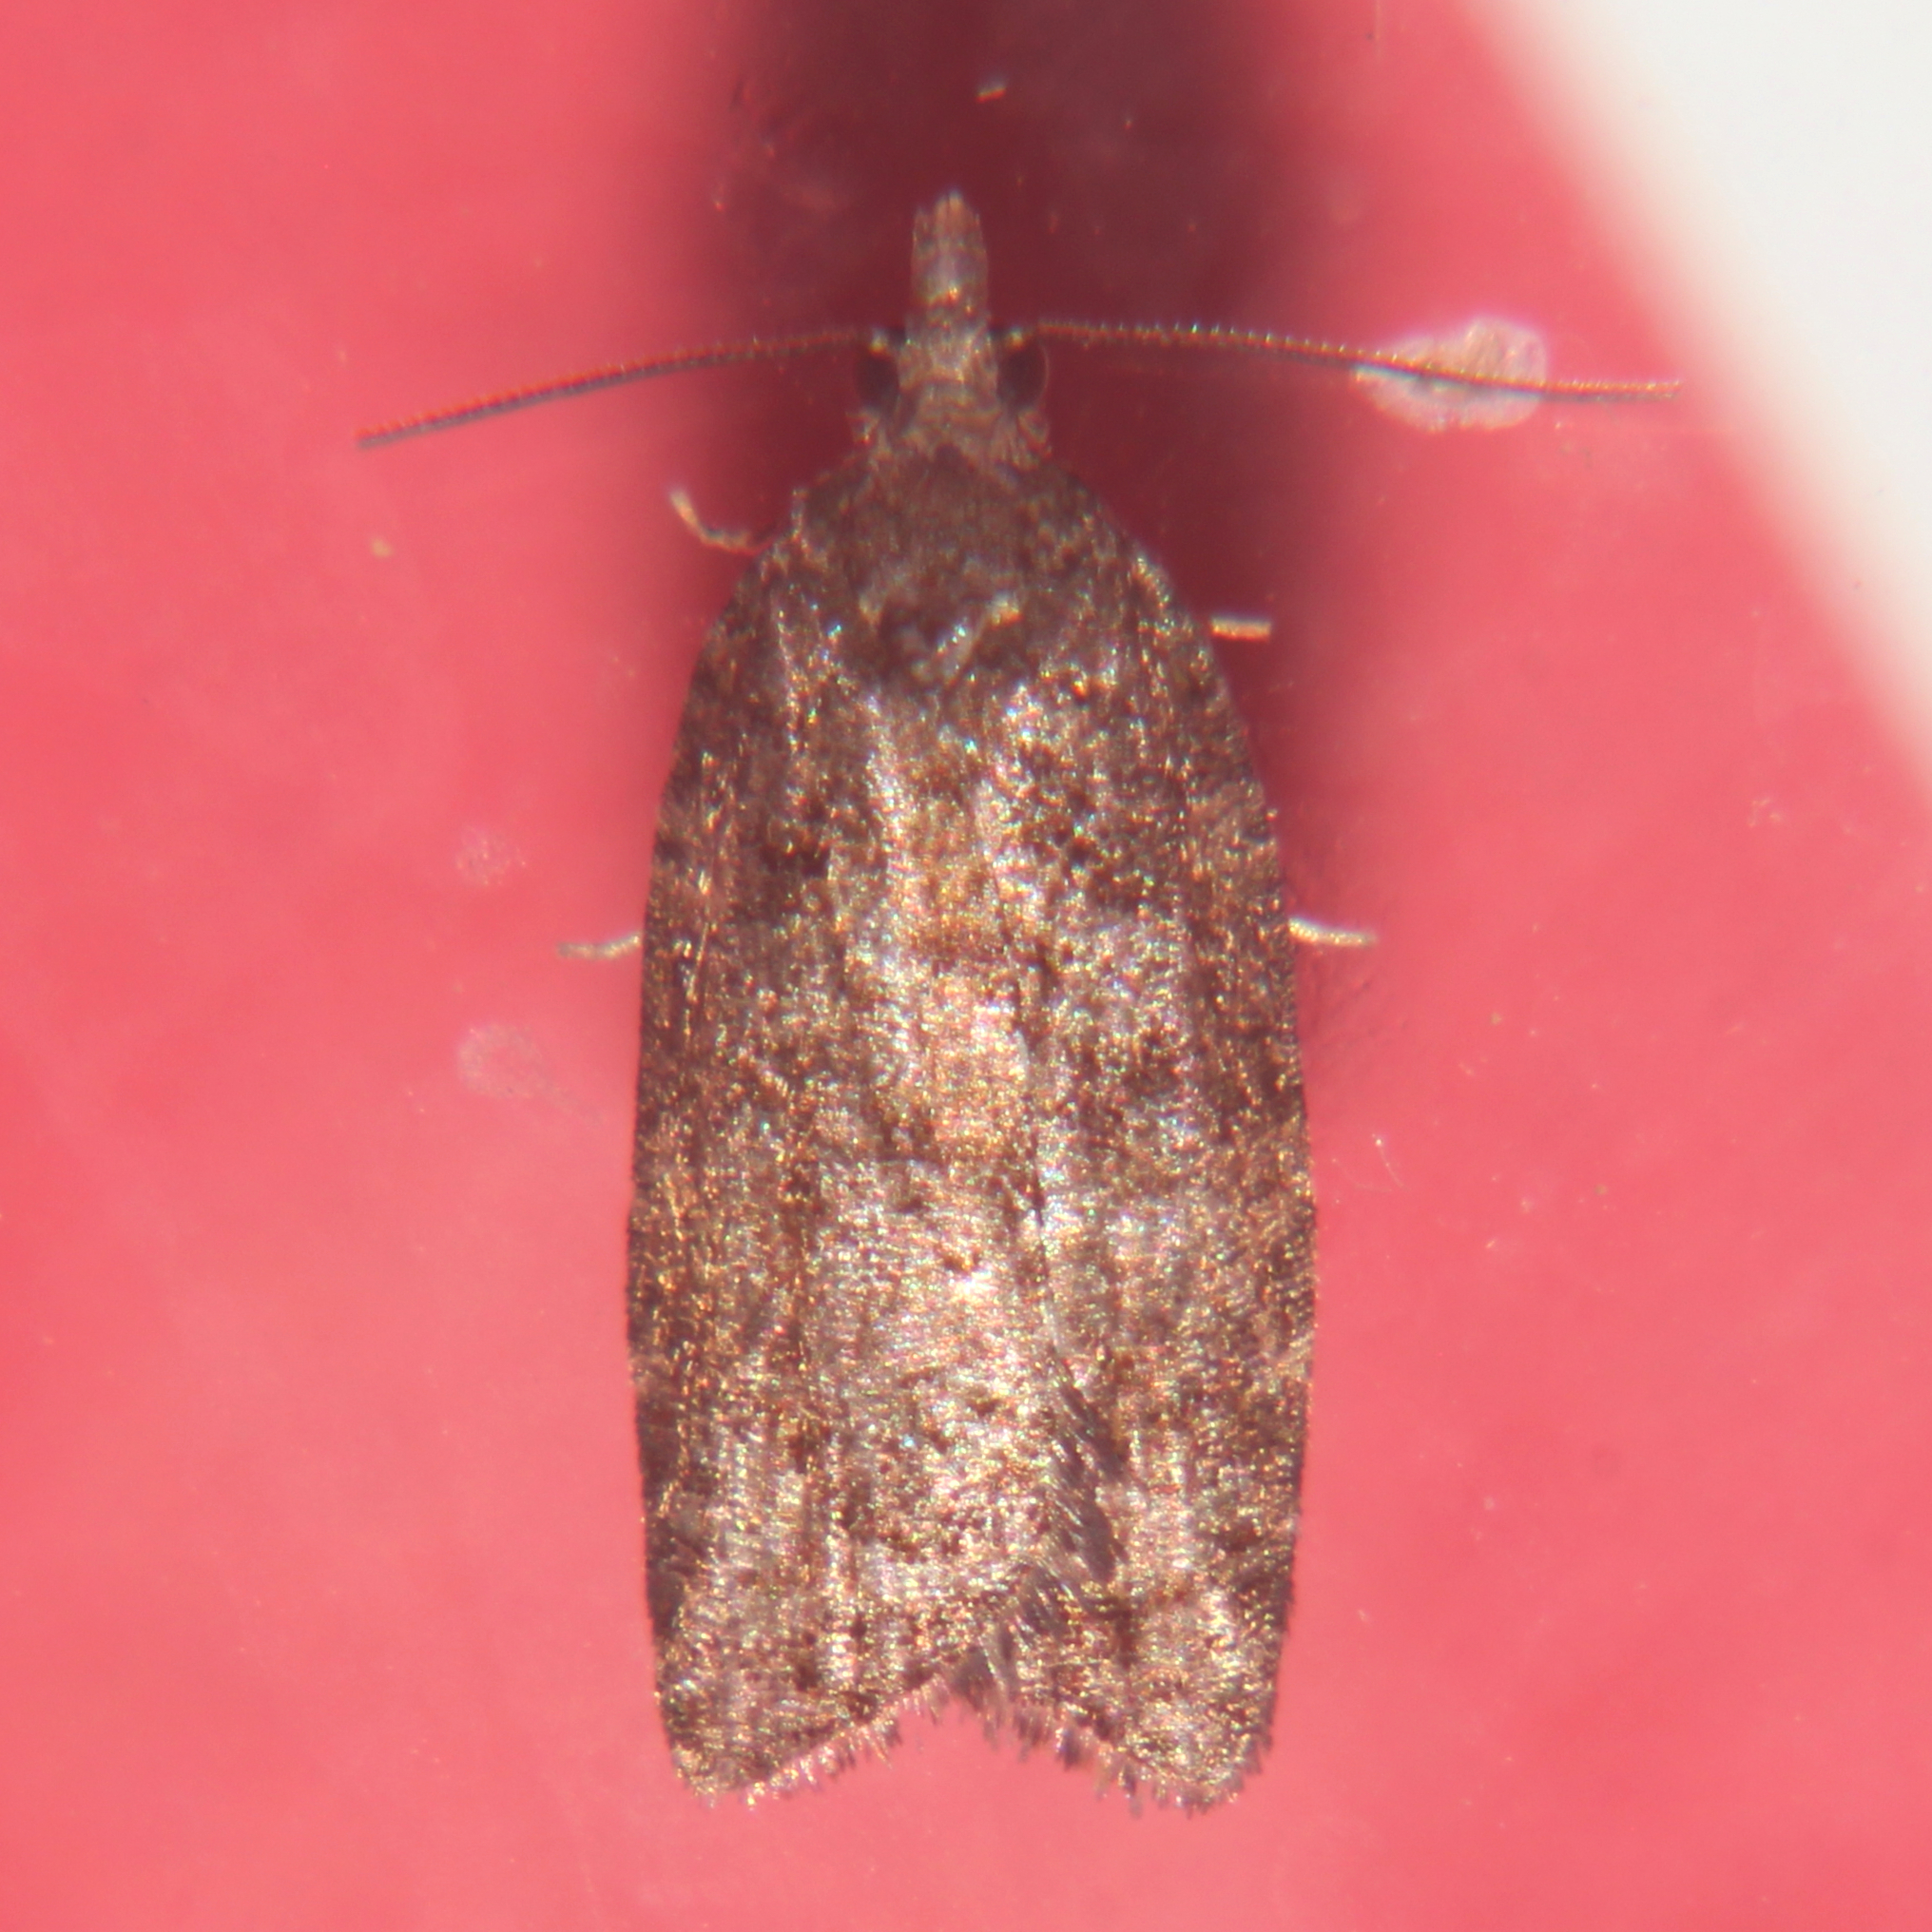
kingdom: Animalia
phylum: Arthropoda
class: Insecta
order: Lepidoptera
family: Tortricidae
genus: Capua
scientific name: Capua intractana
